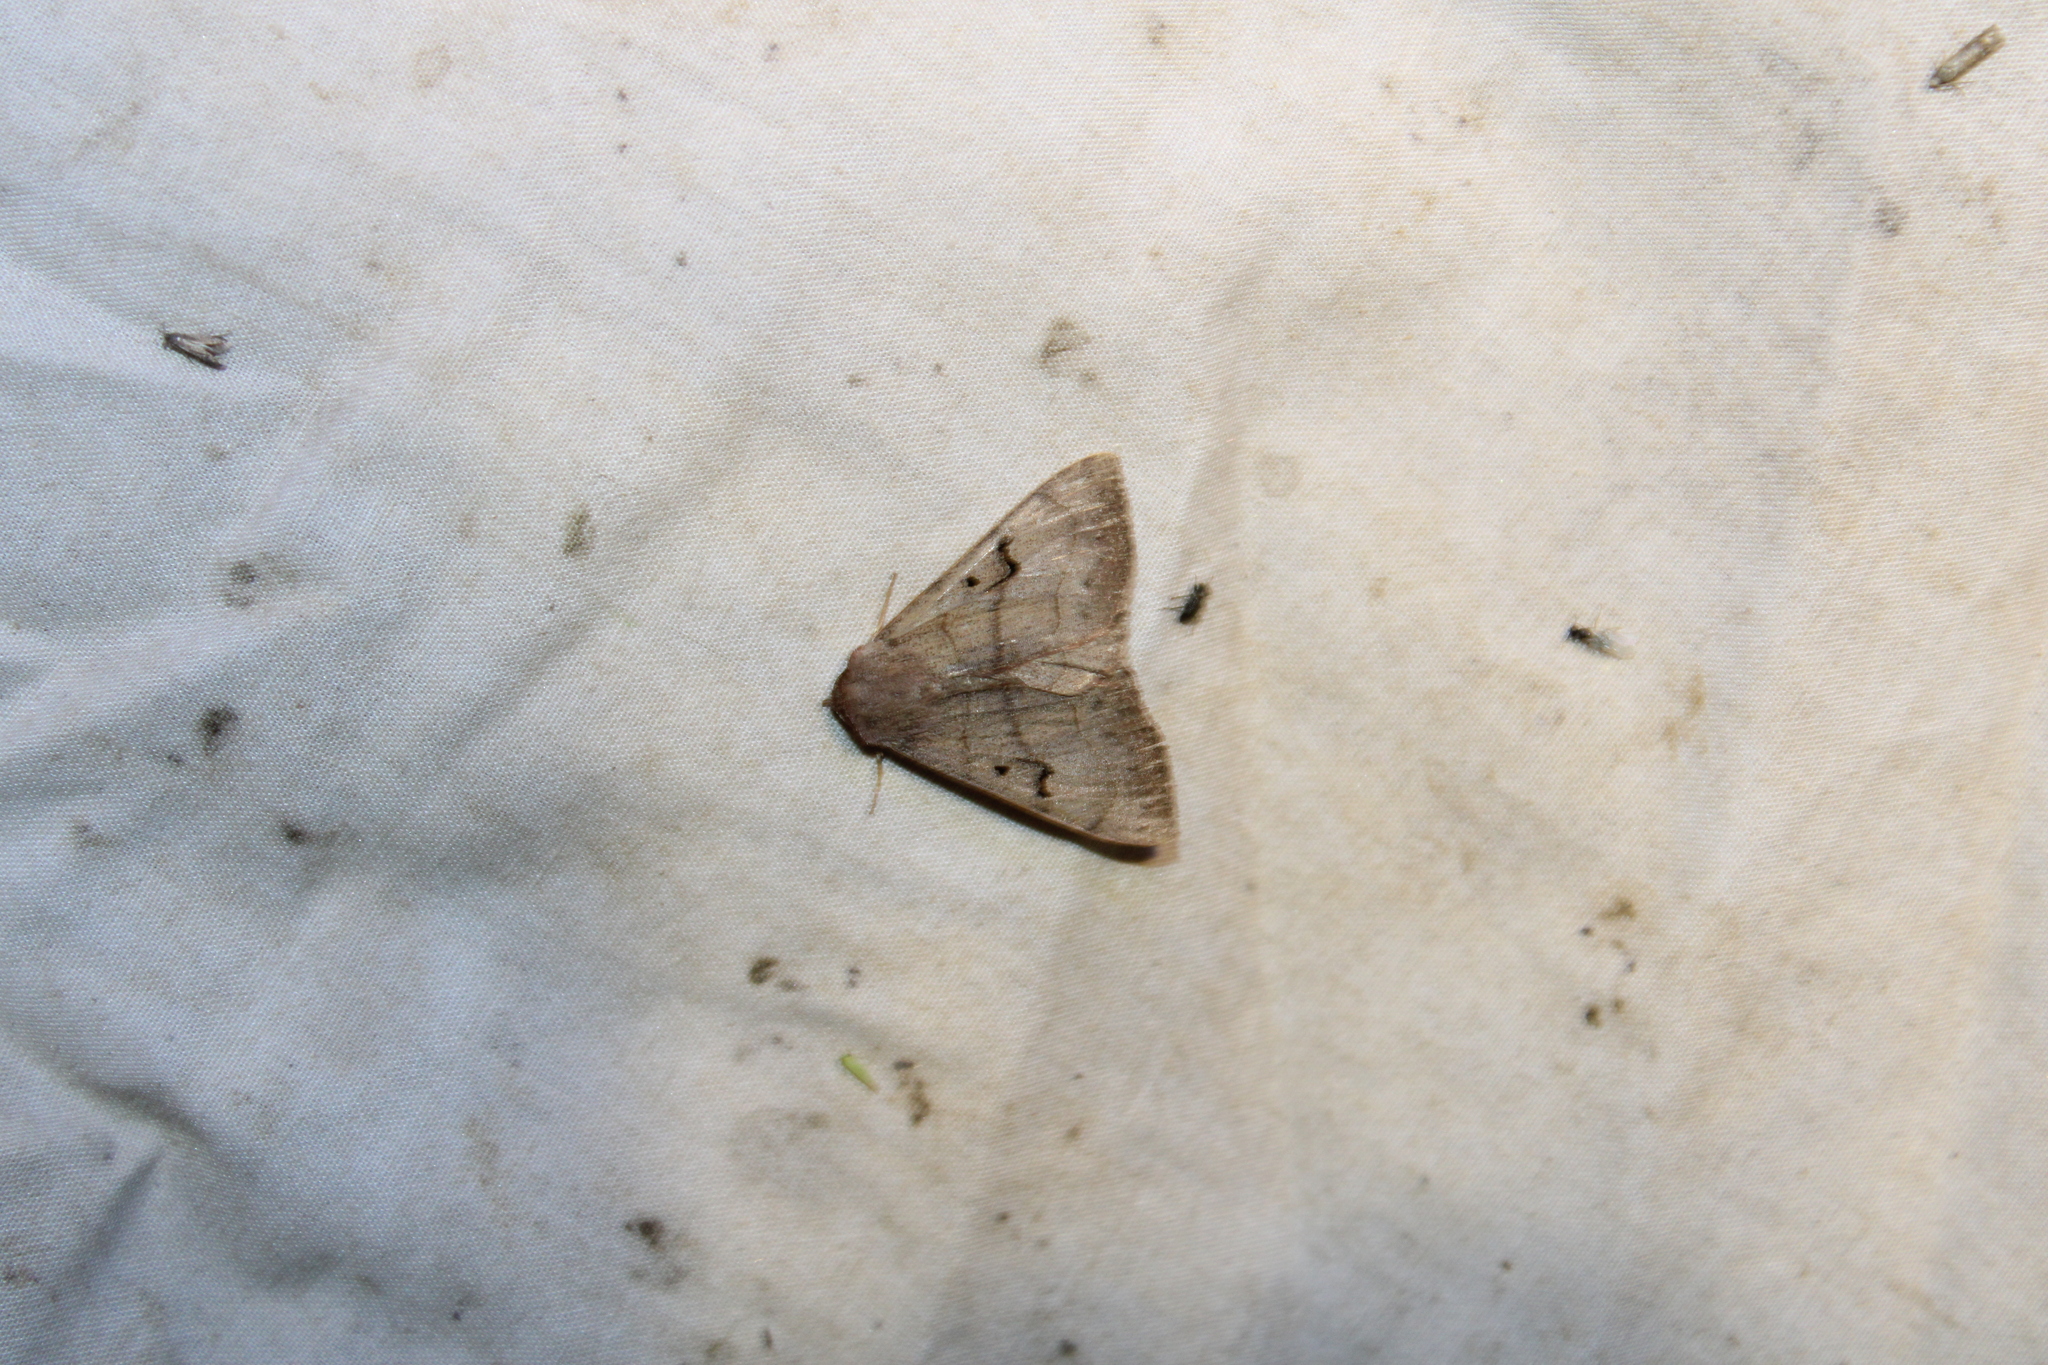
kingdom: Animalia
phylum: Arthropoda
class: Insecta
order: Lepidoptera
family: Erebidae
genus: Panopoda
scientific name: Panopoda carneicosta
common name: Brown panopoda moth
